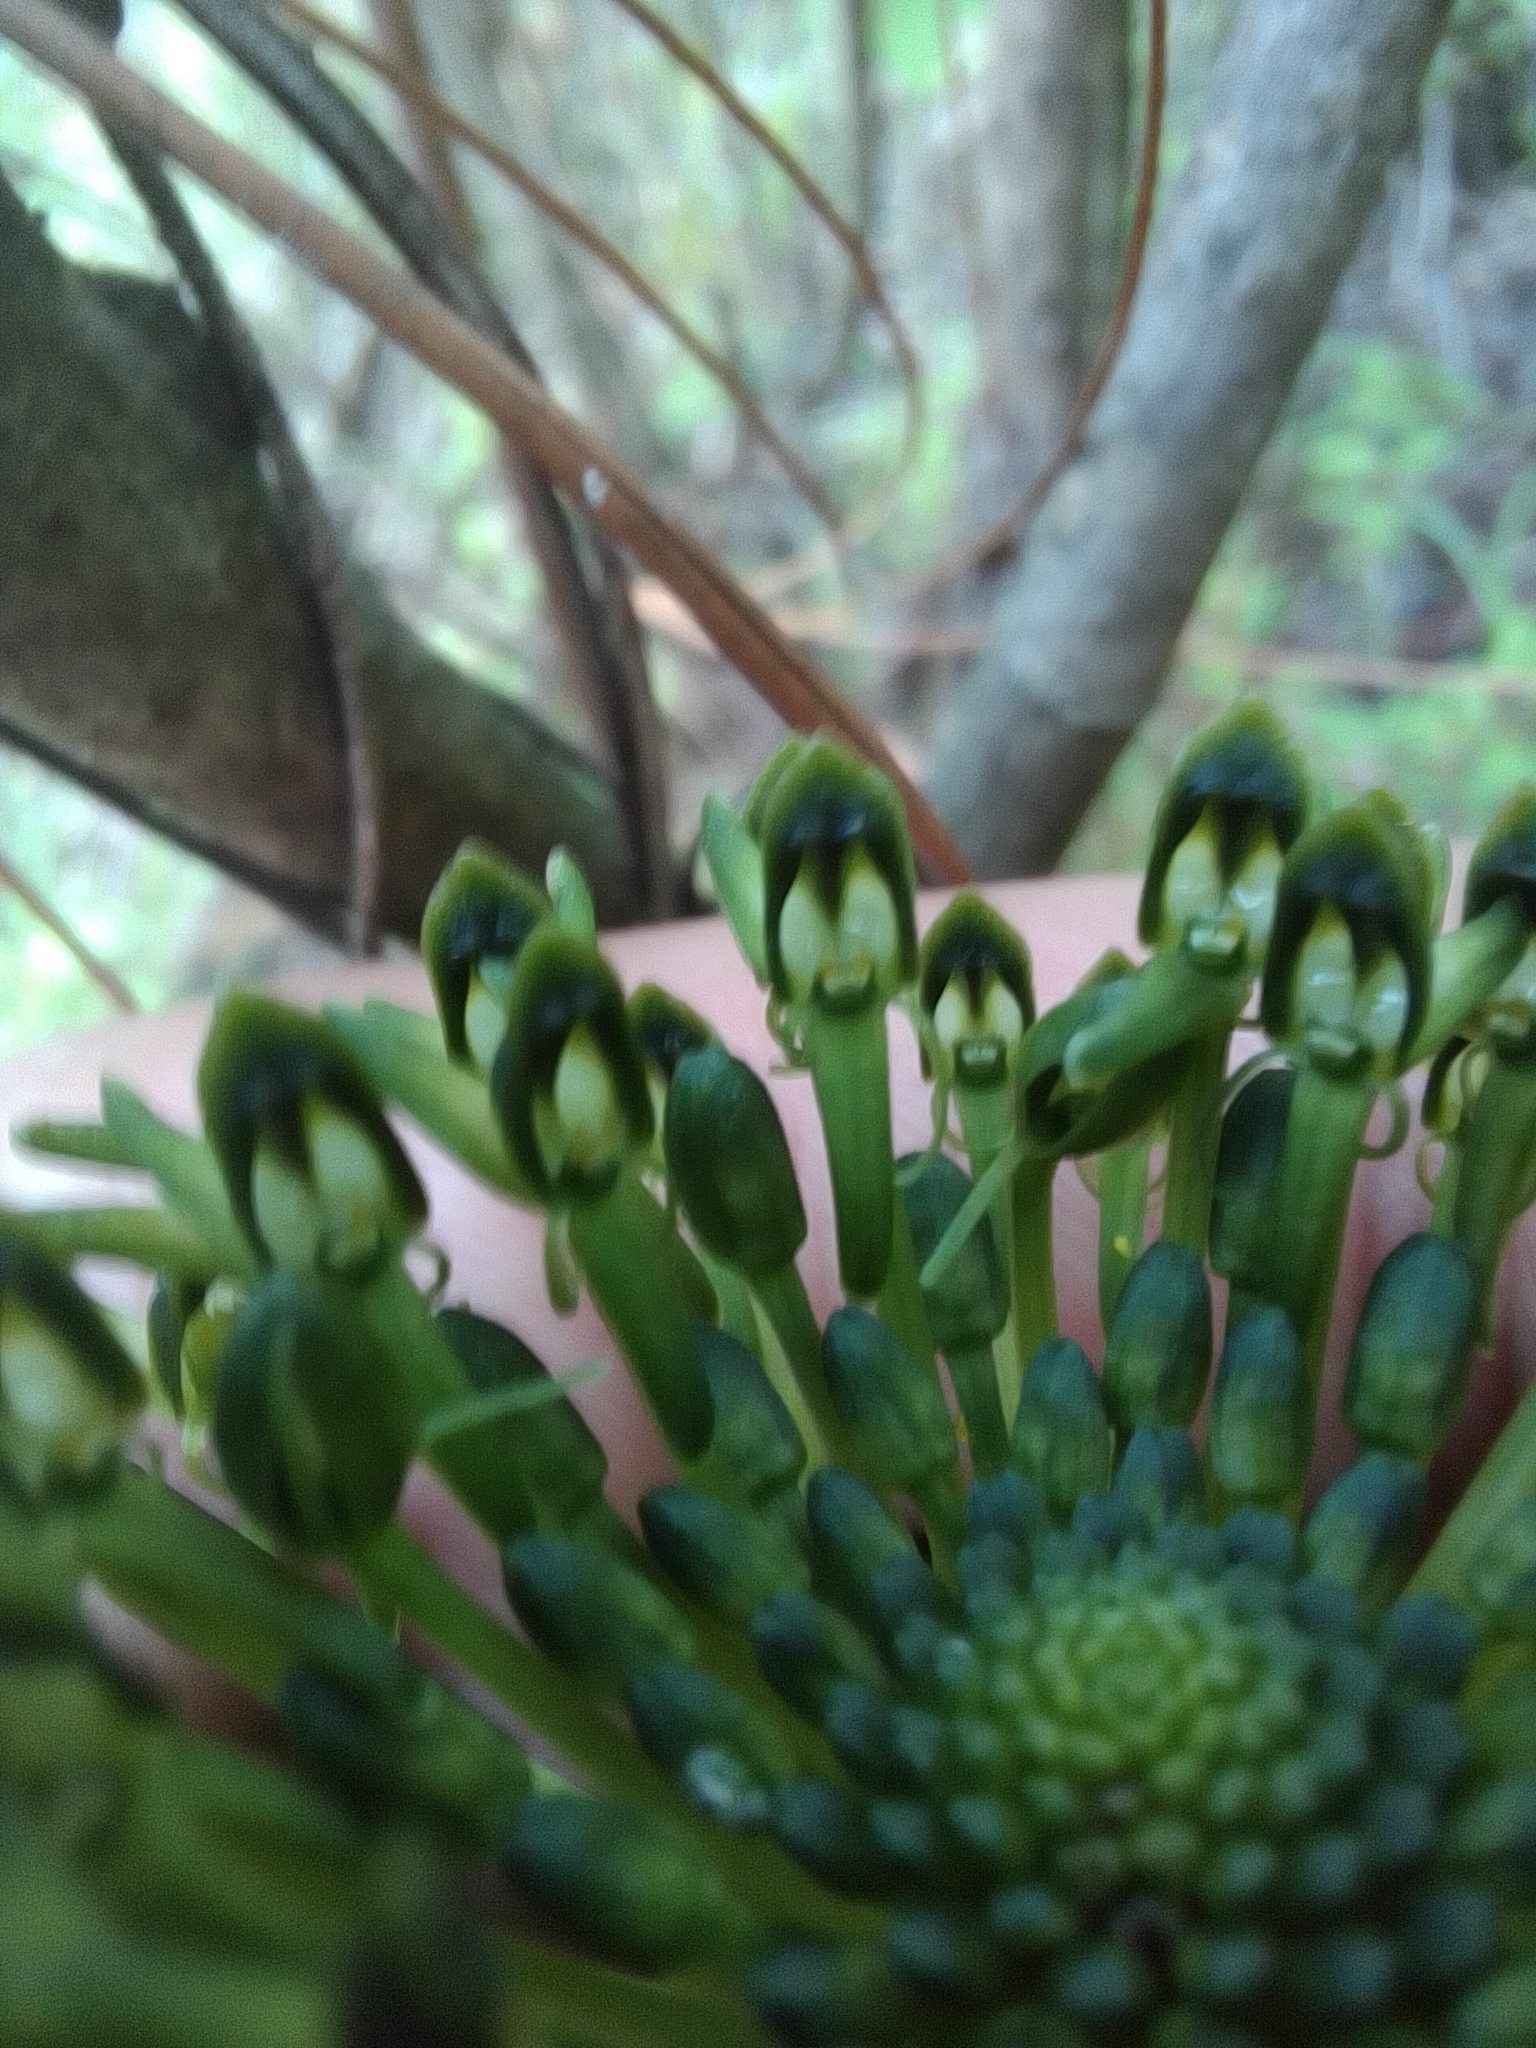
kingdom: Plantae
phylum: Tracheophyta
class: Liliopsida
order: Asparagales
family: Orchidaceae
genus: Malaxis
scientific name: Malaxis brachyrrhynchos
